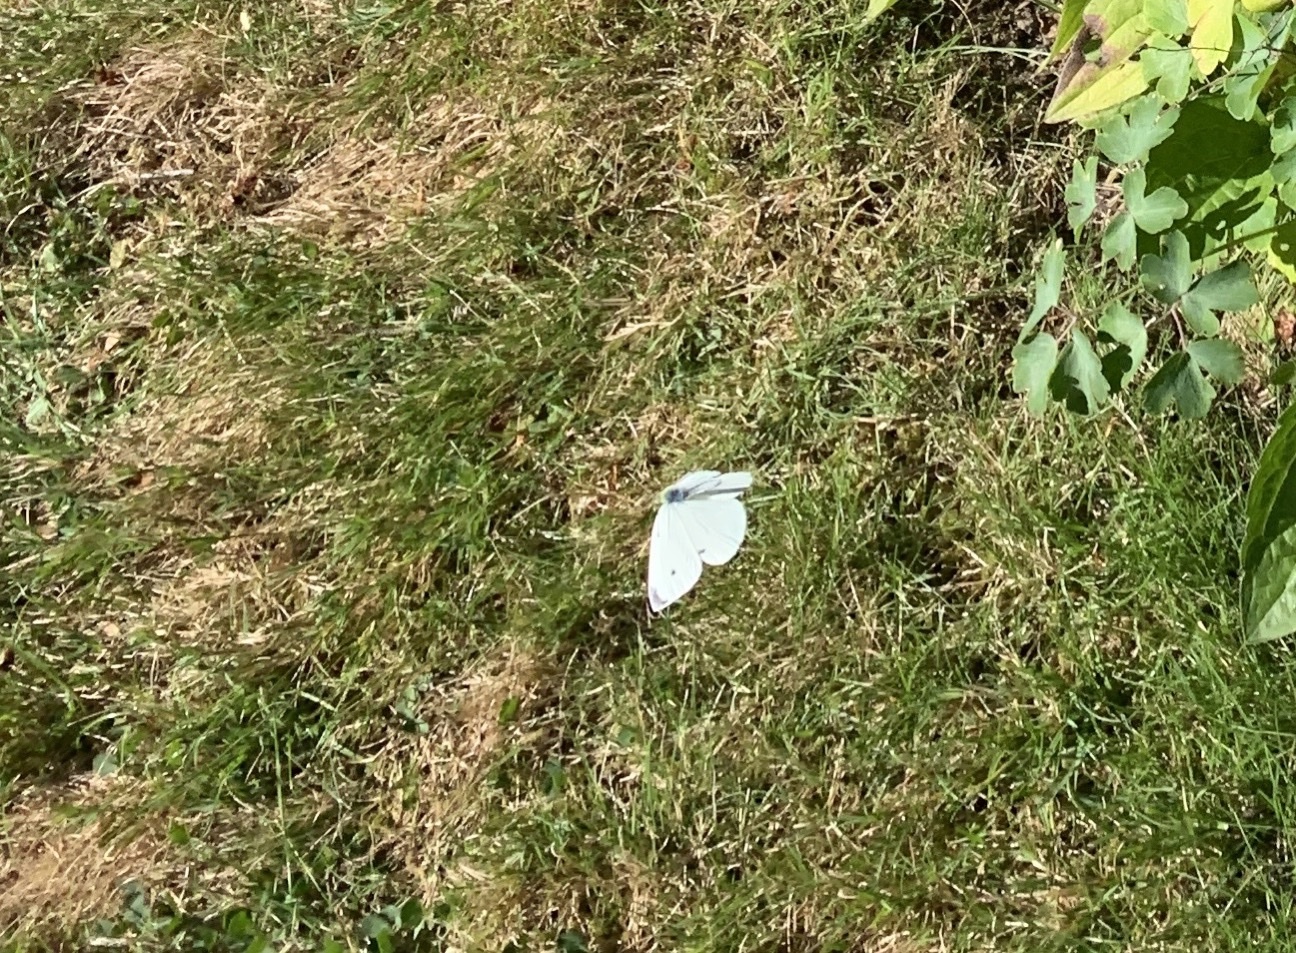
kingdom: Animalia
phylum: Arthropoda
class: Insecta
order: Lepidoptera
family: Pieridae
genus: Pieris
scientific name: Pieris rapae
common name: Small white
